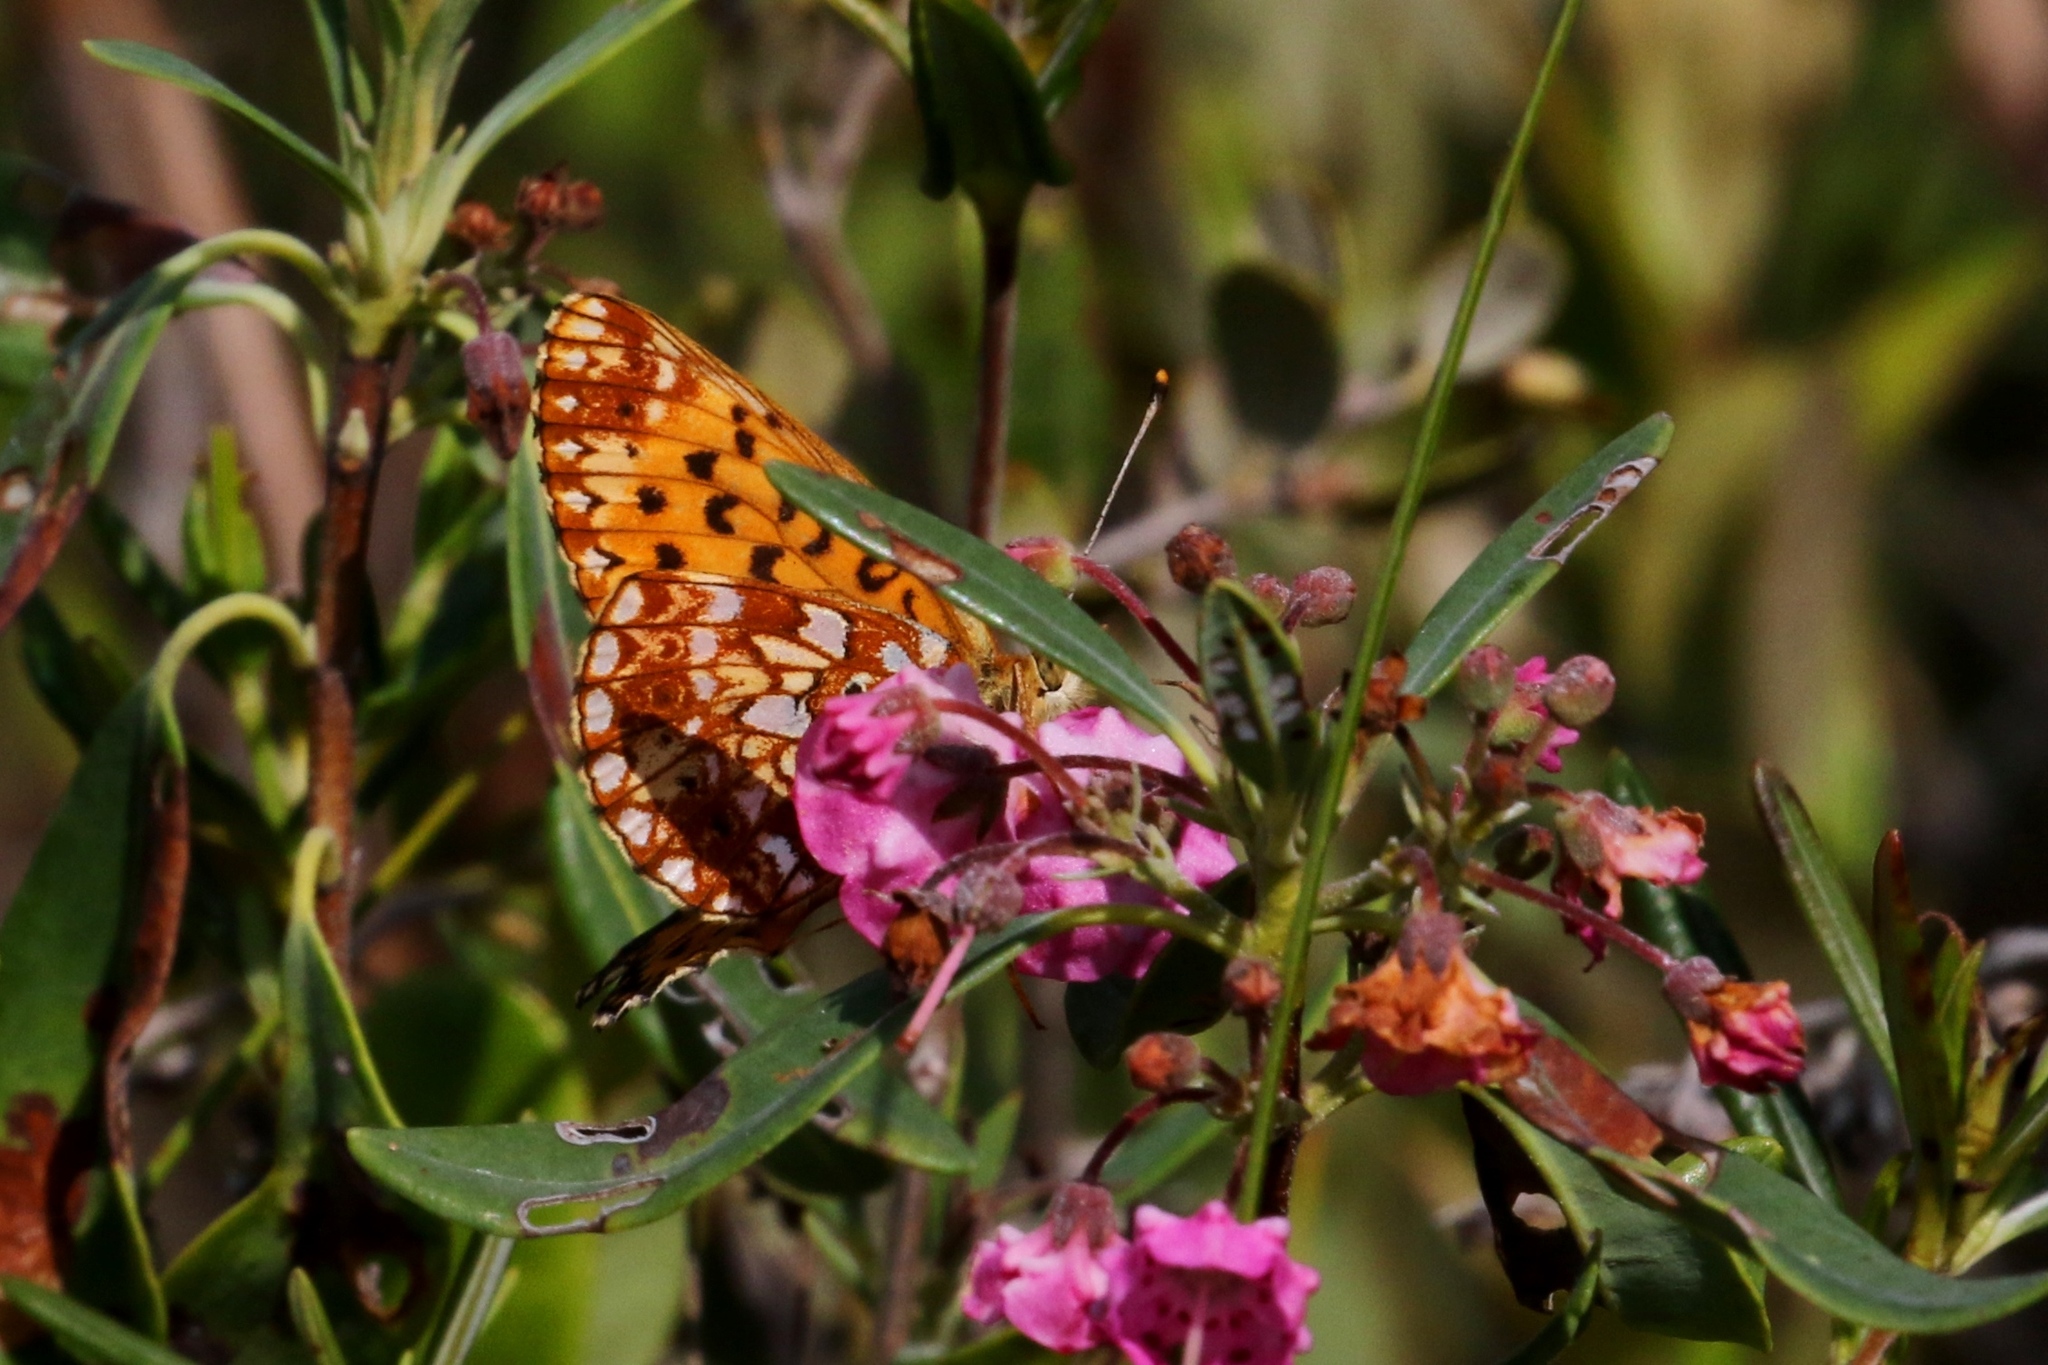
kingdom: Animalia
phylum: Arthropoda
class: Insecta
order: Lepidoptera
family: Nymphalidae
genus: Boloria
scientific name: Boloria
